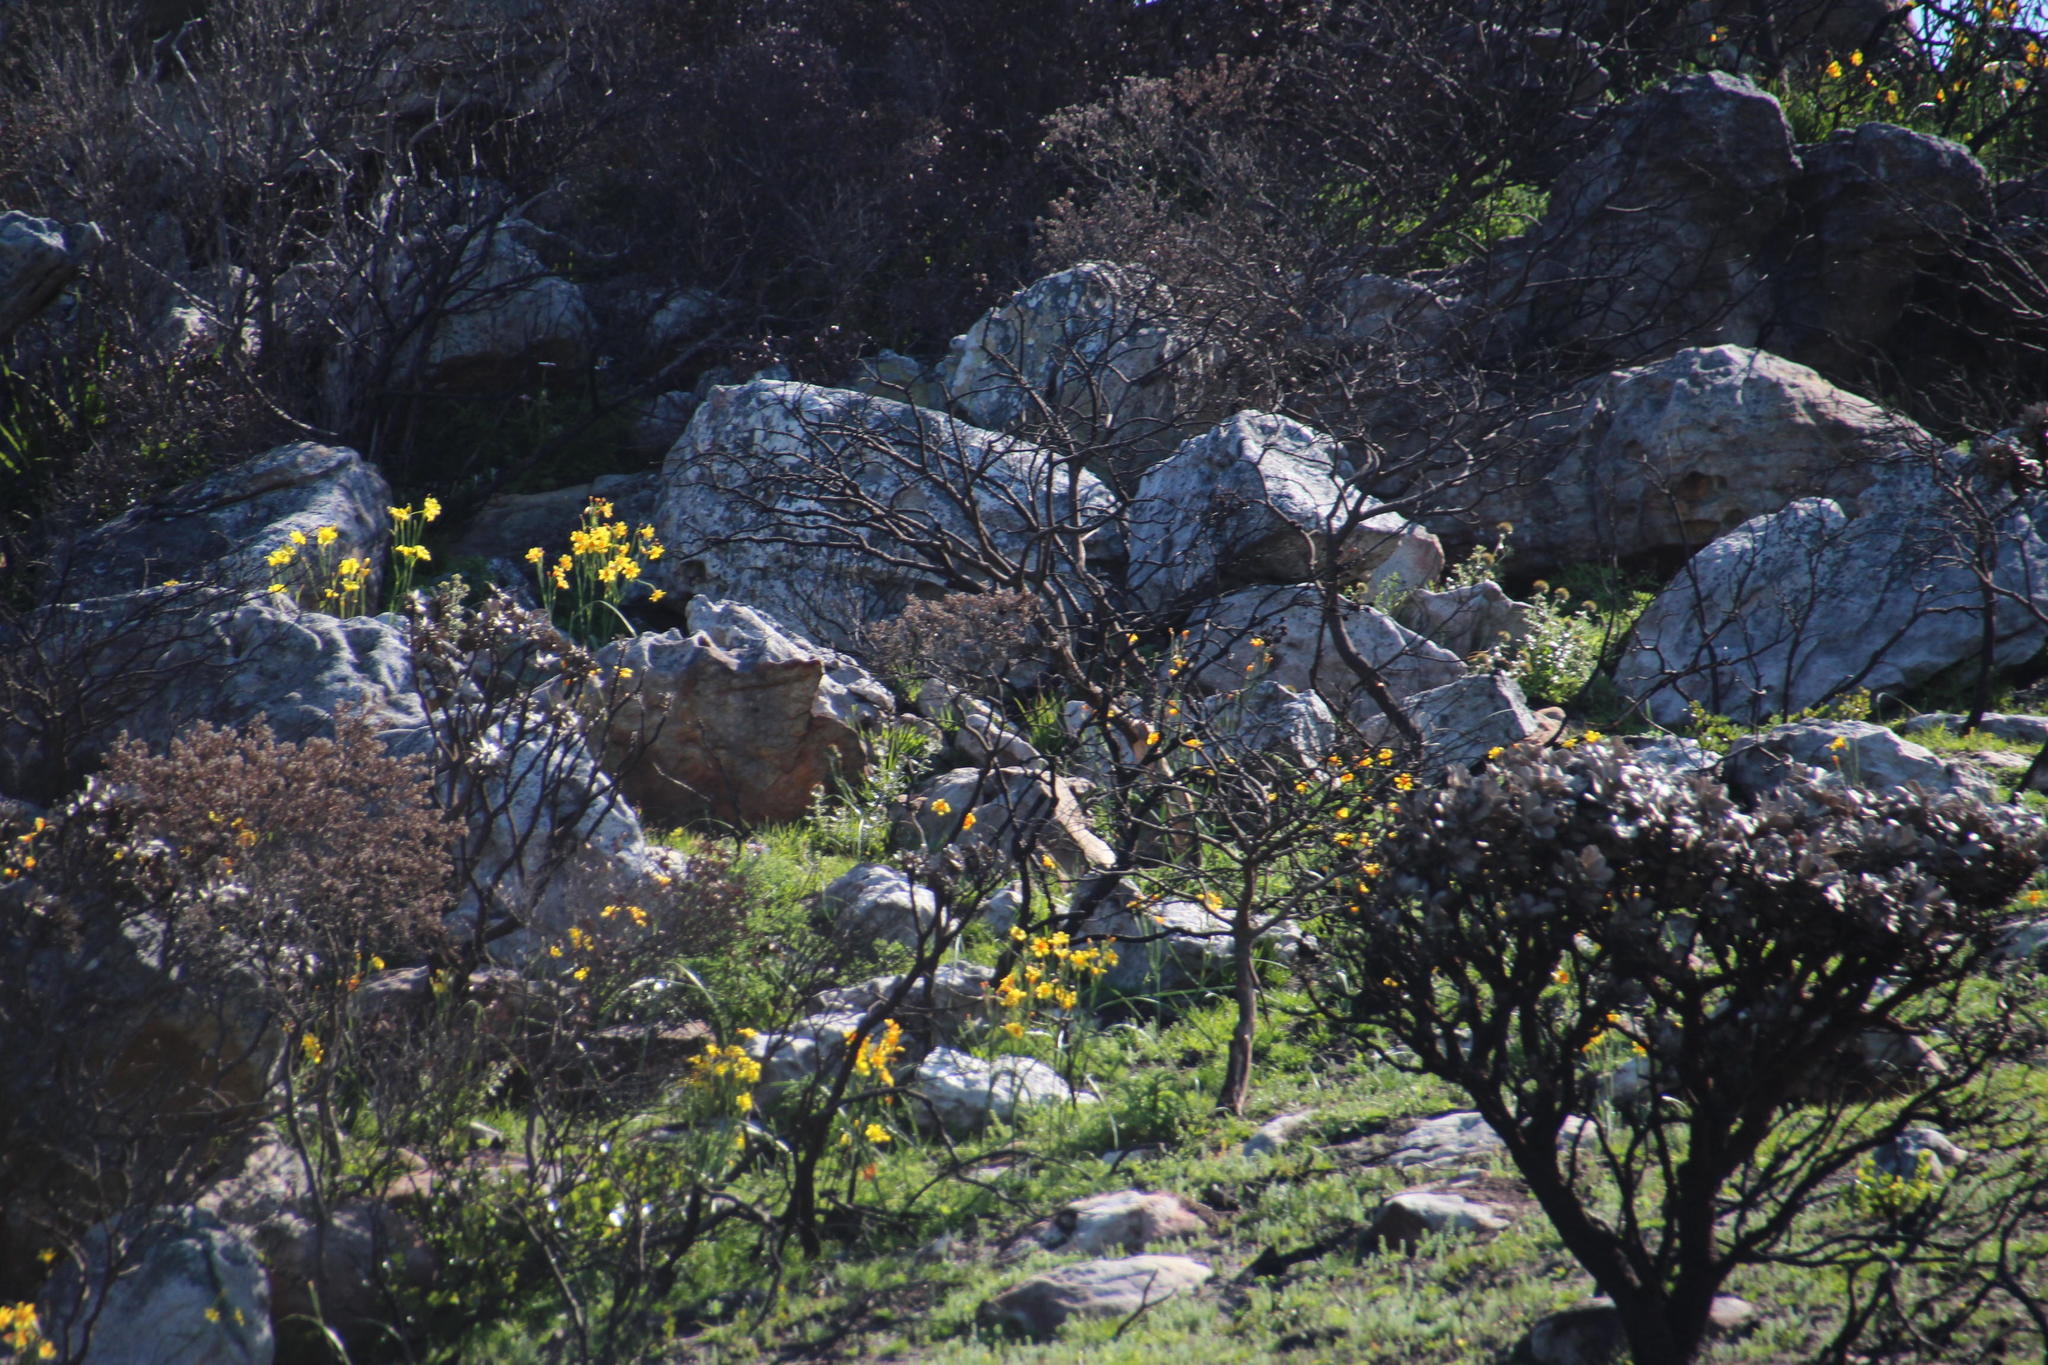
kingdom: Plantae
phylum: Tracheophyta
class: Liliopsida
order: Asparagales
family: Iridaceae
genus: Moraea
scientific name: Moraea ochroleuca
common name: Red tulp
